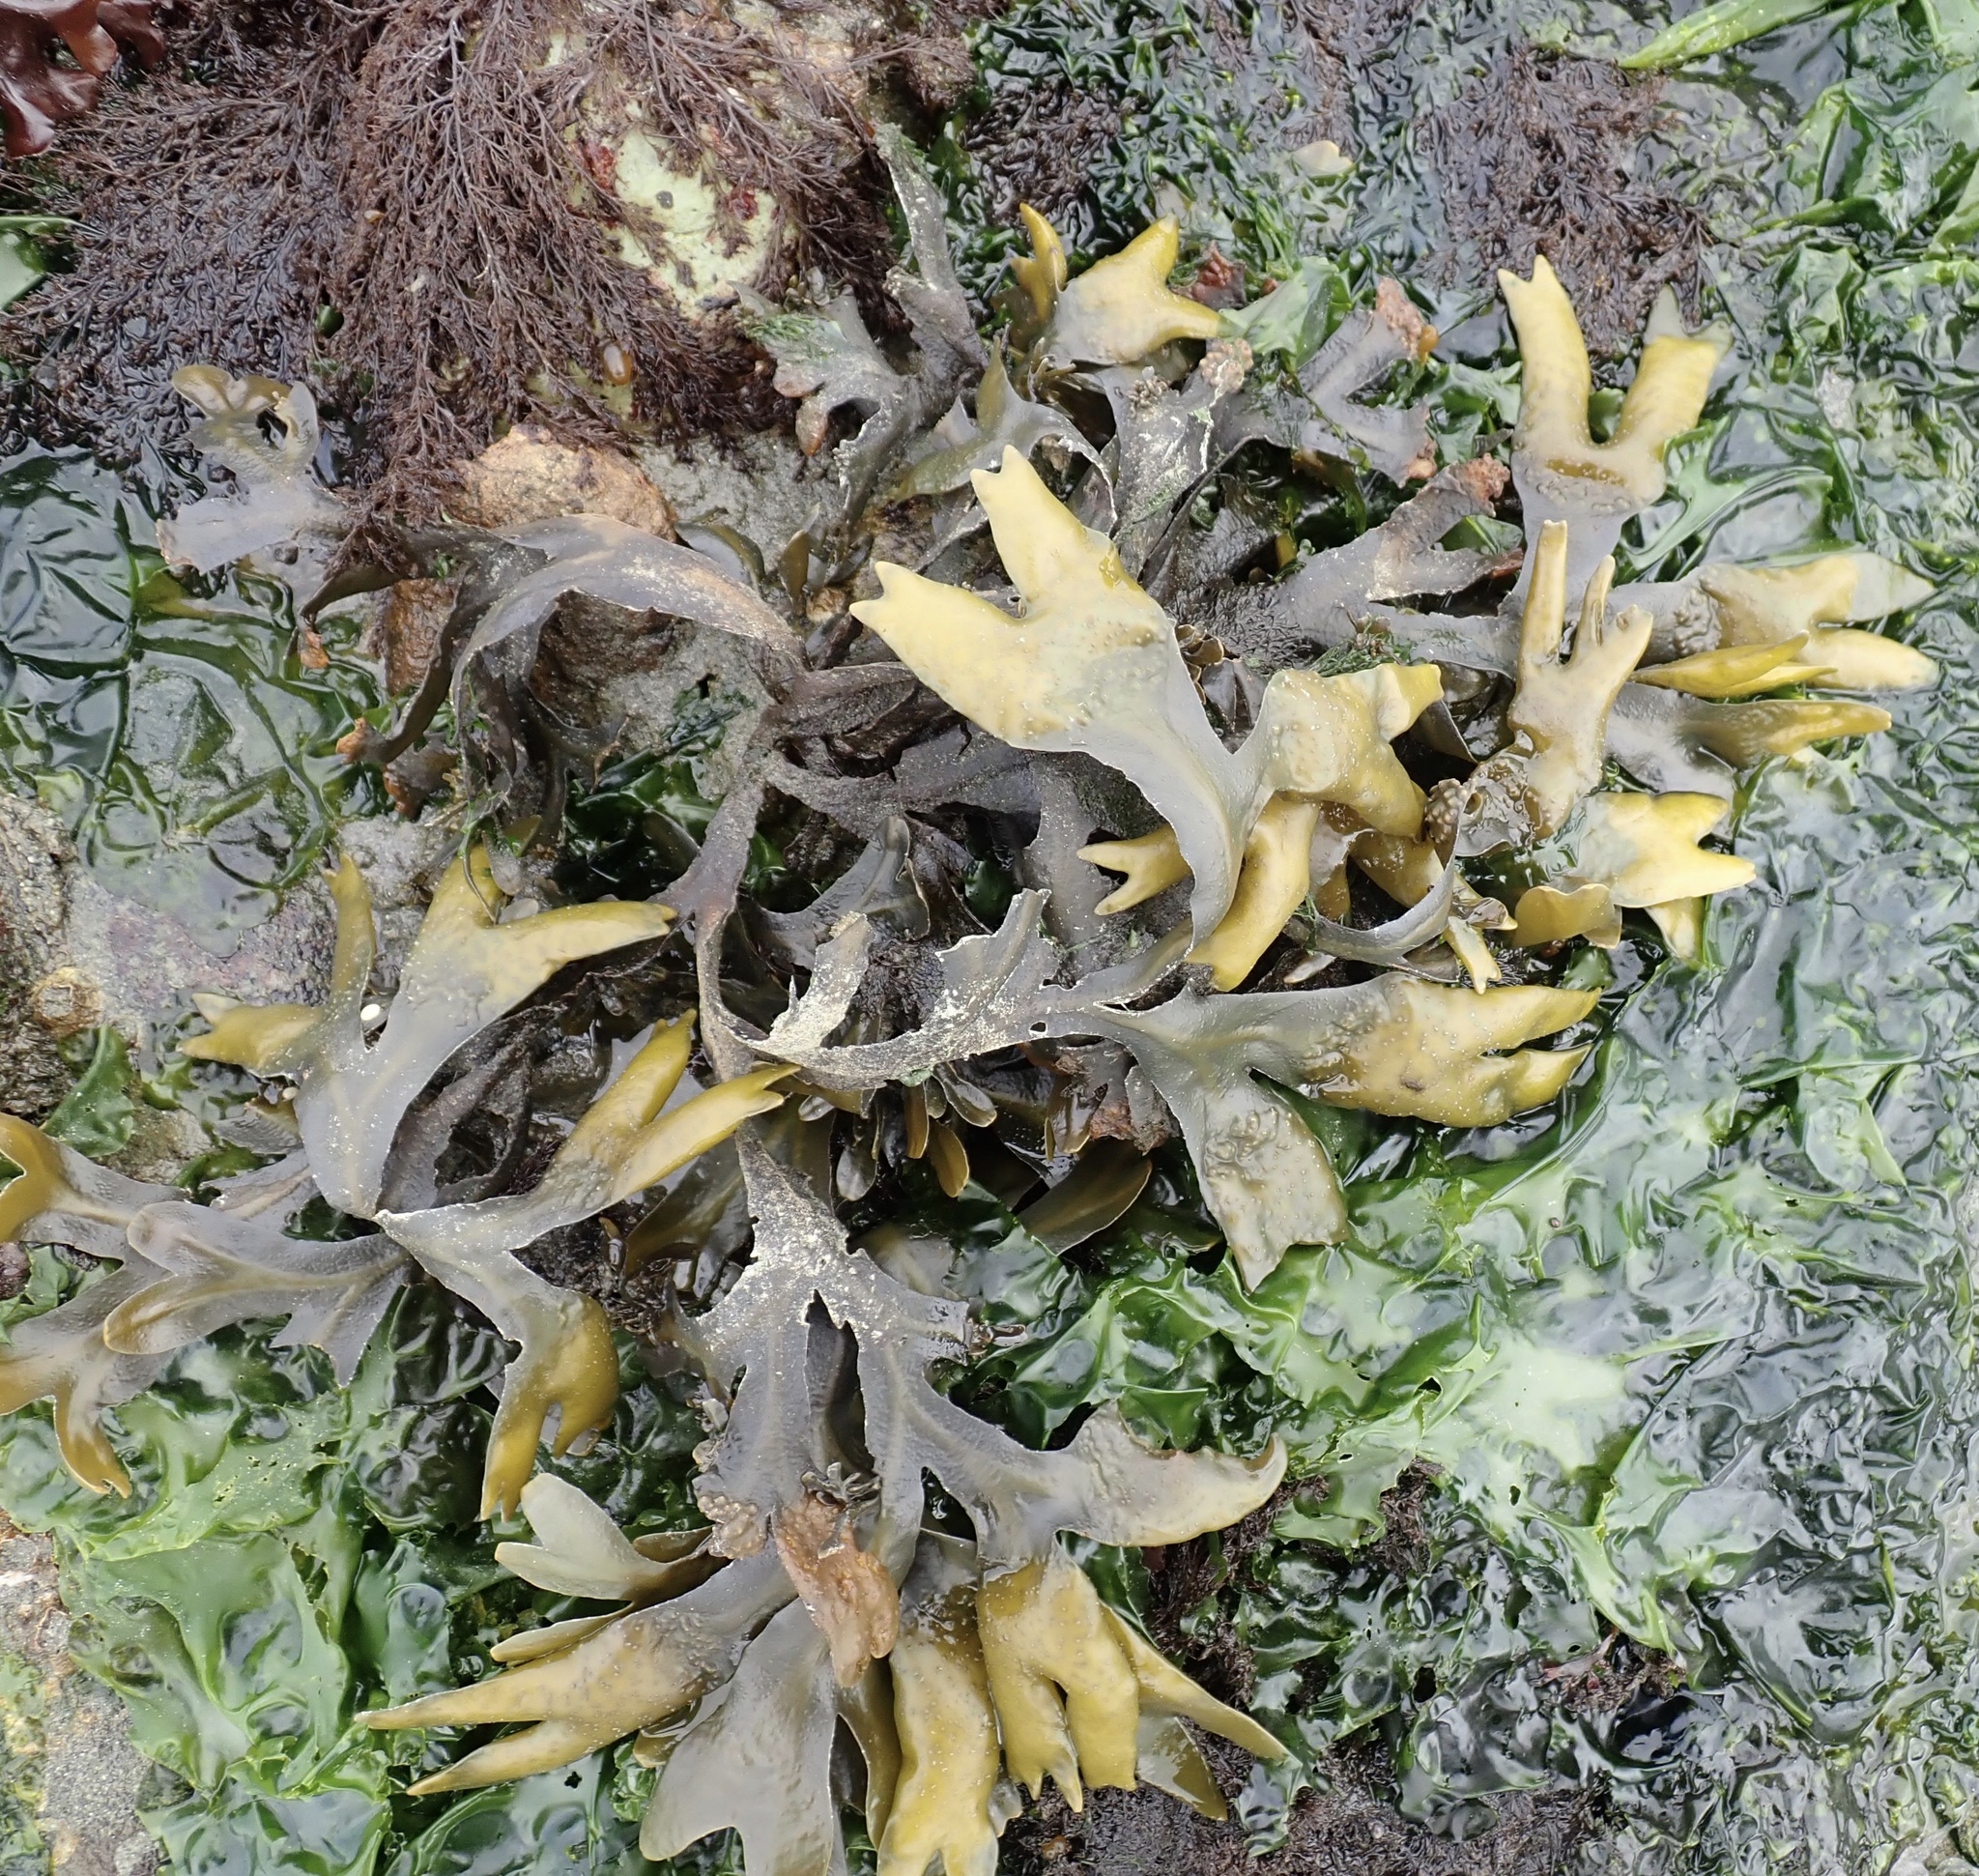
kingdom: Chromista
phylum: Ochrophyta
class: Phaeophyceae
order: Fucales
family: Fucaceae
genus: Fucus
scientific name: Fucus distichus
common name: Rockweed
